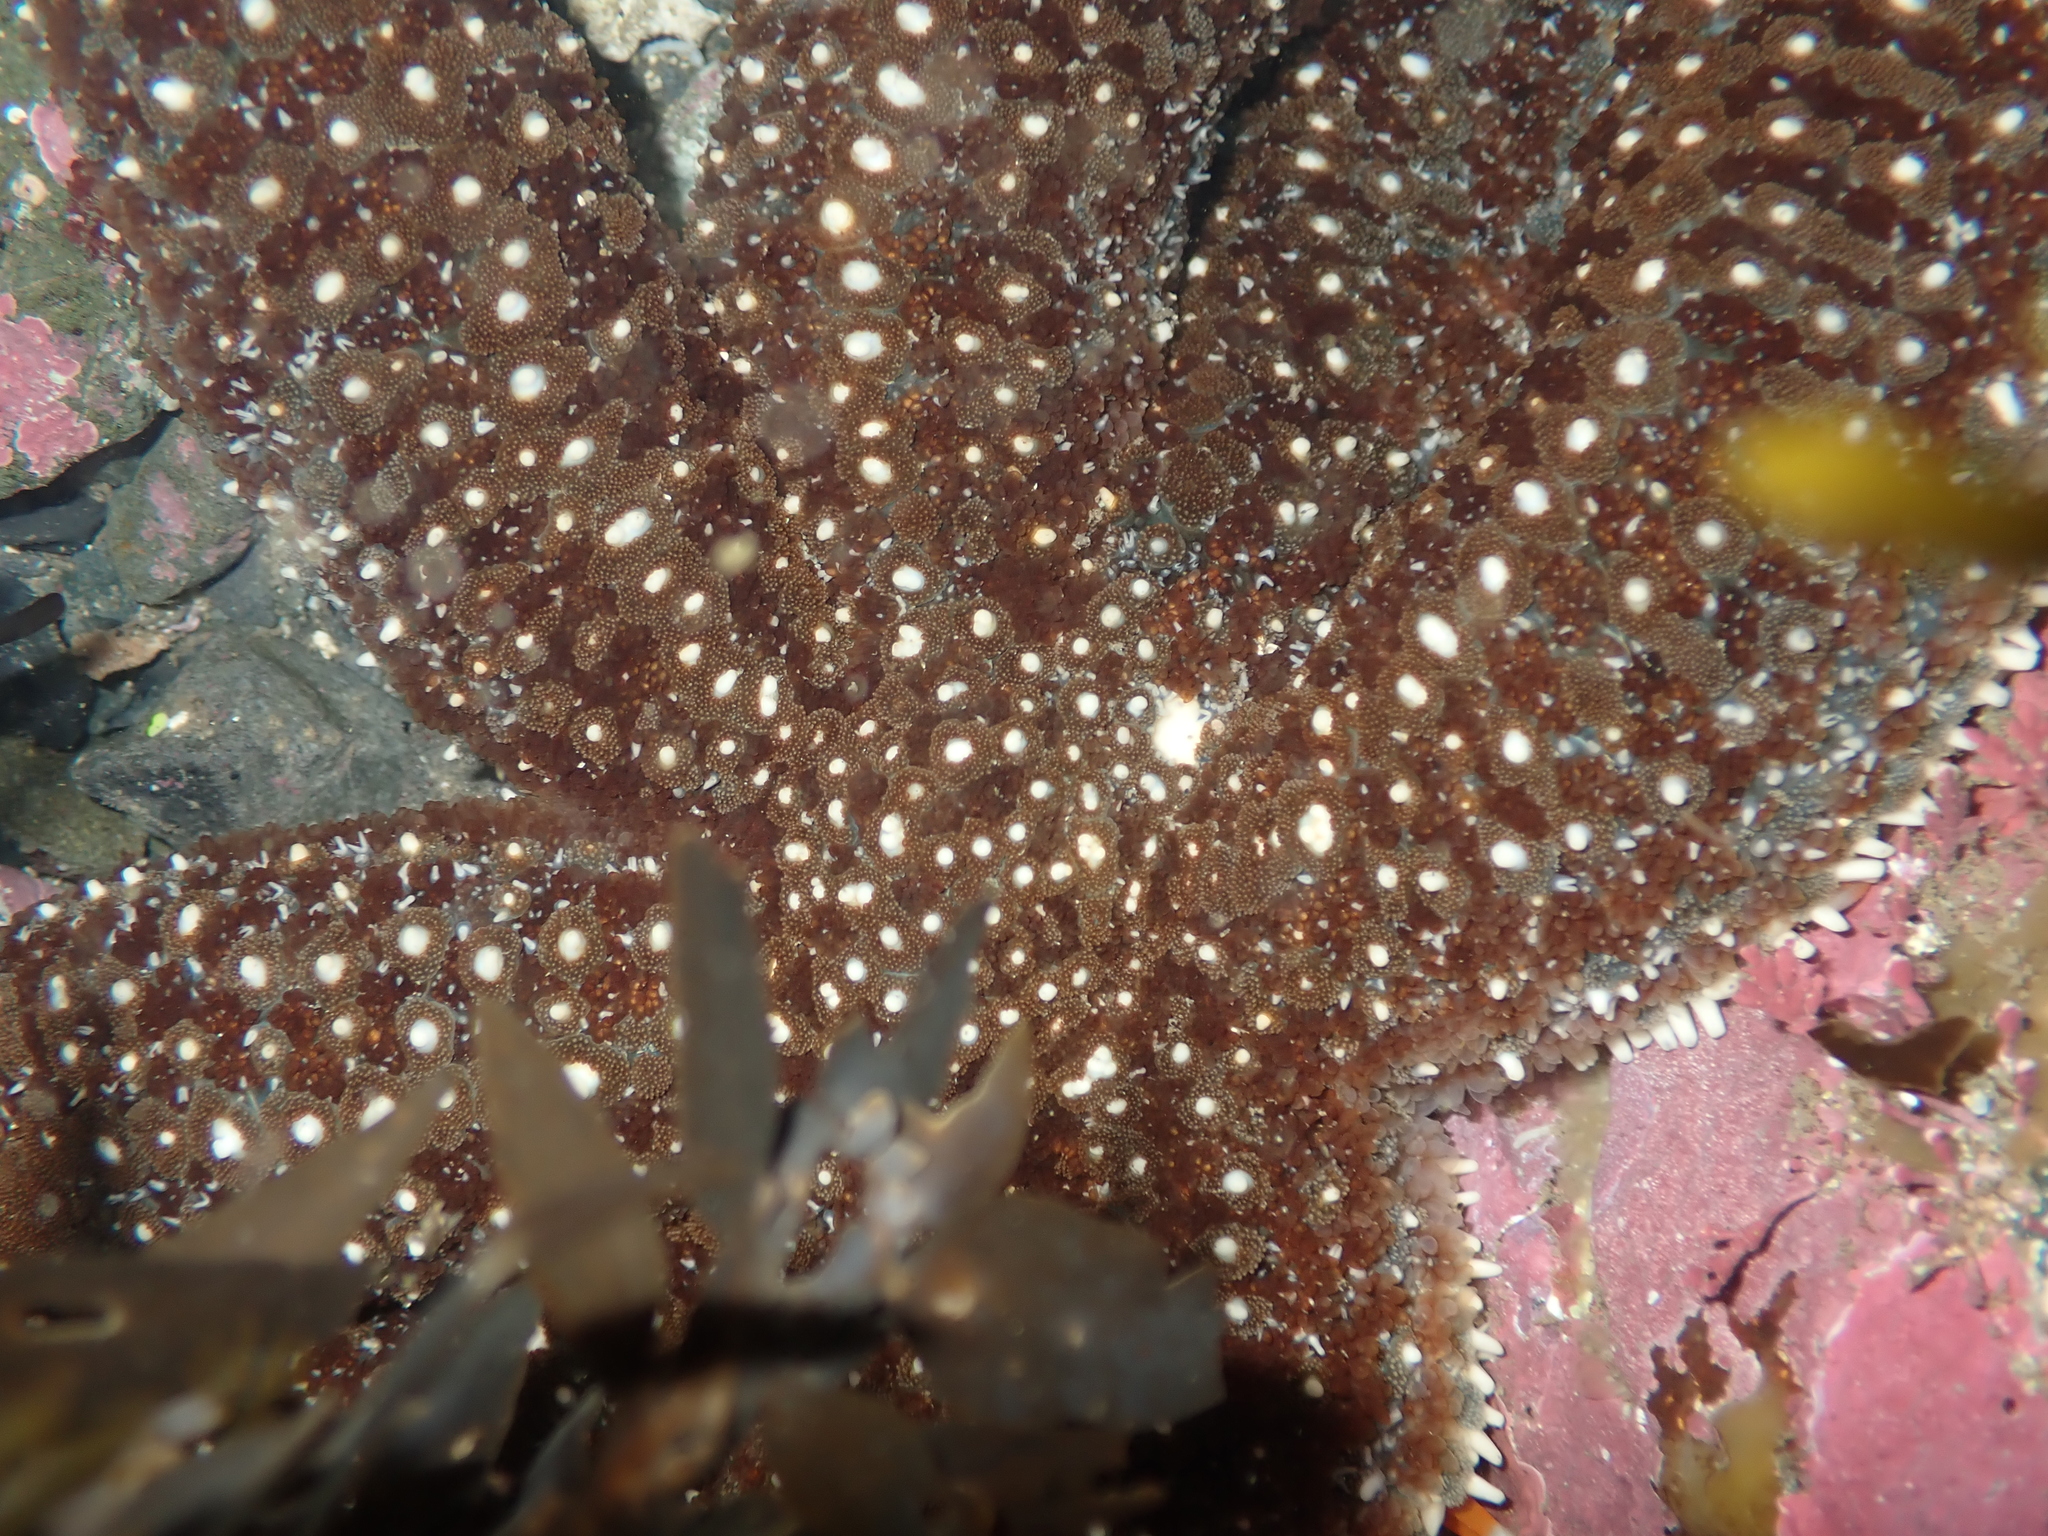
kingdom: Animalia
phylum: Echinodermata
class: Asteroidea
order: Forcipulatida
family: Asteriidae
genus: Astrostole
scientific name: Astrostole scabra
